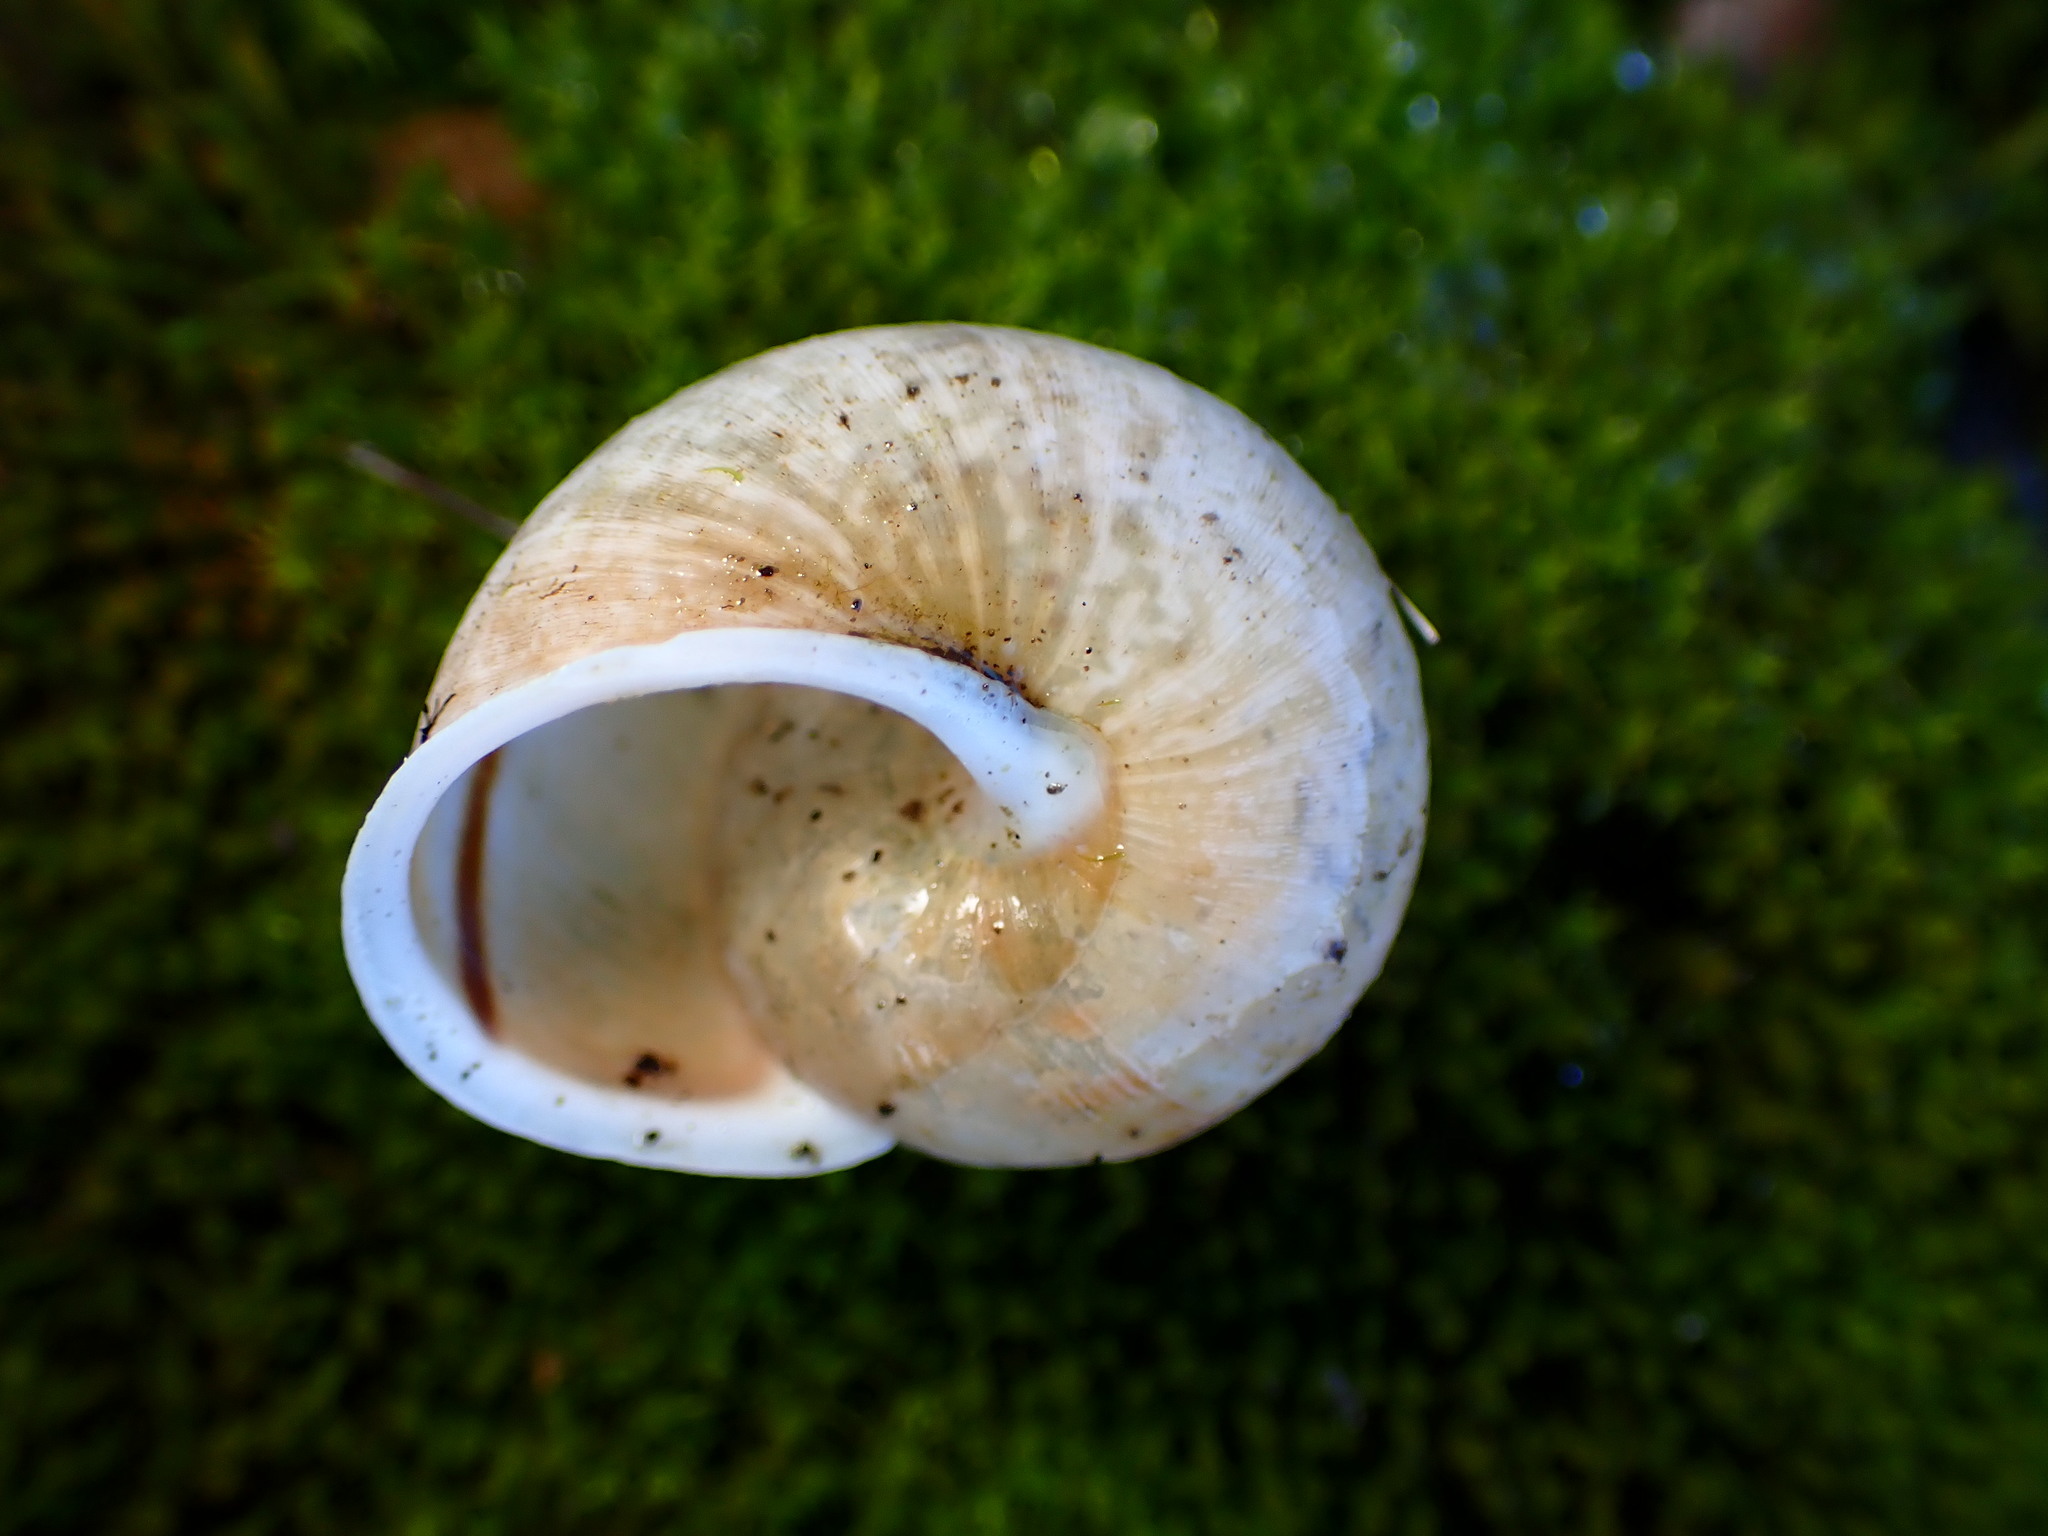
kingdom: Animalia
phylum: Mollusca
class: Gastropoda
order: Stylommatophora
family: Xanthonychidae
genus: Helminthoglypta
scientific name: Helminthoglypta nickliniana
